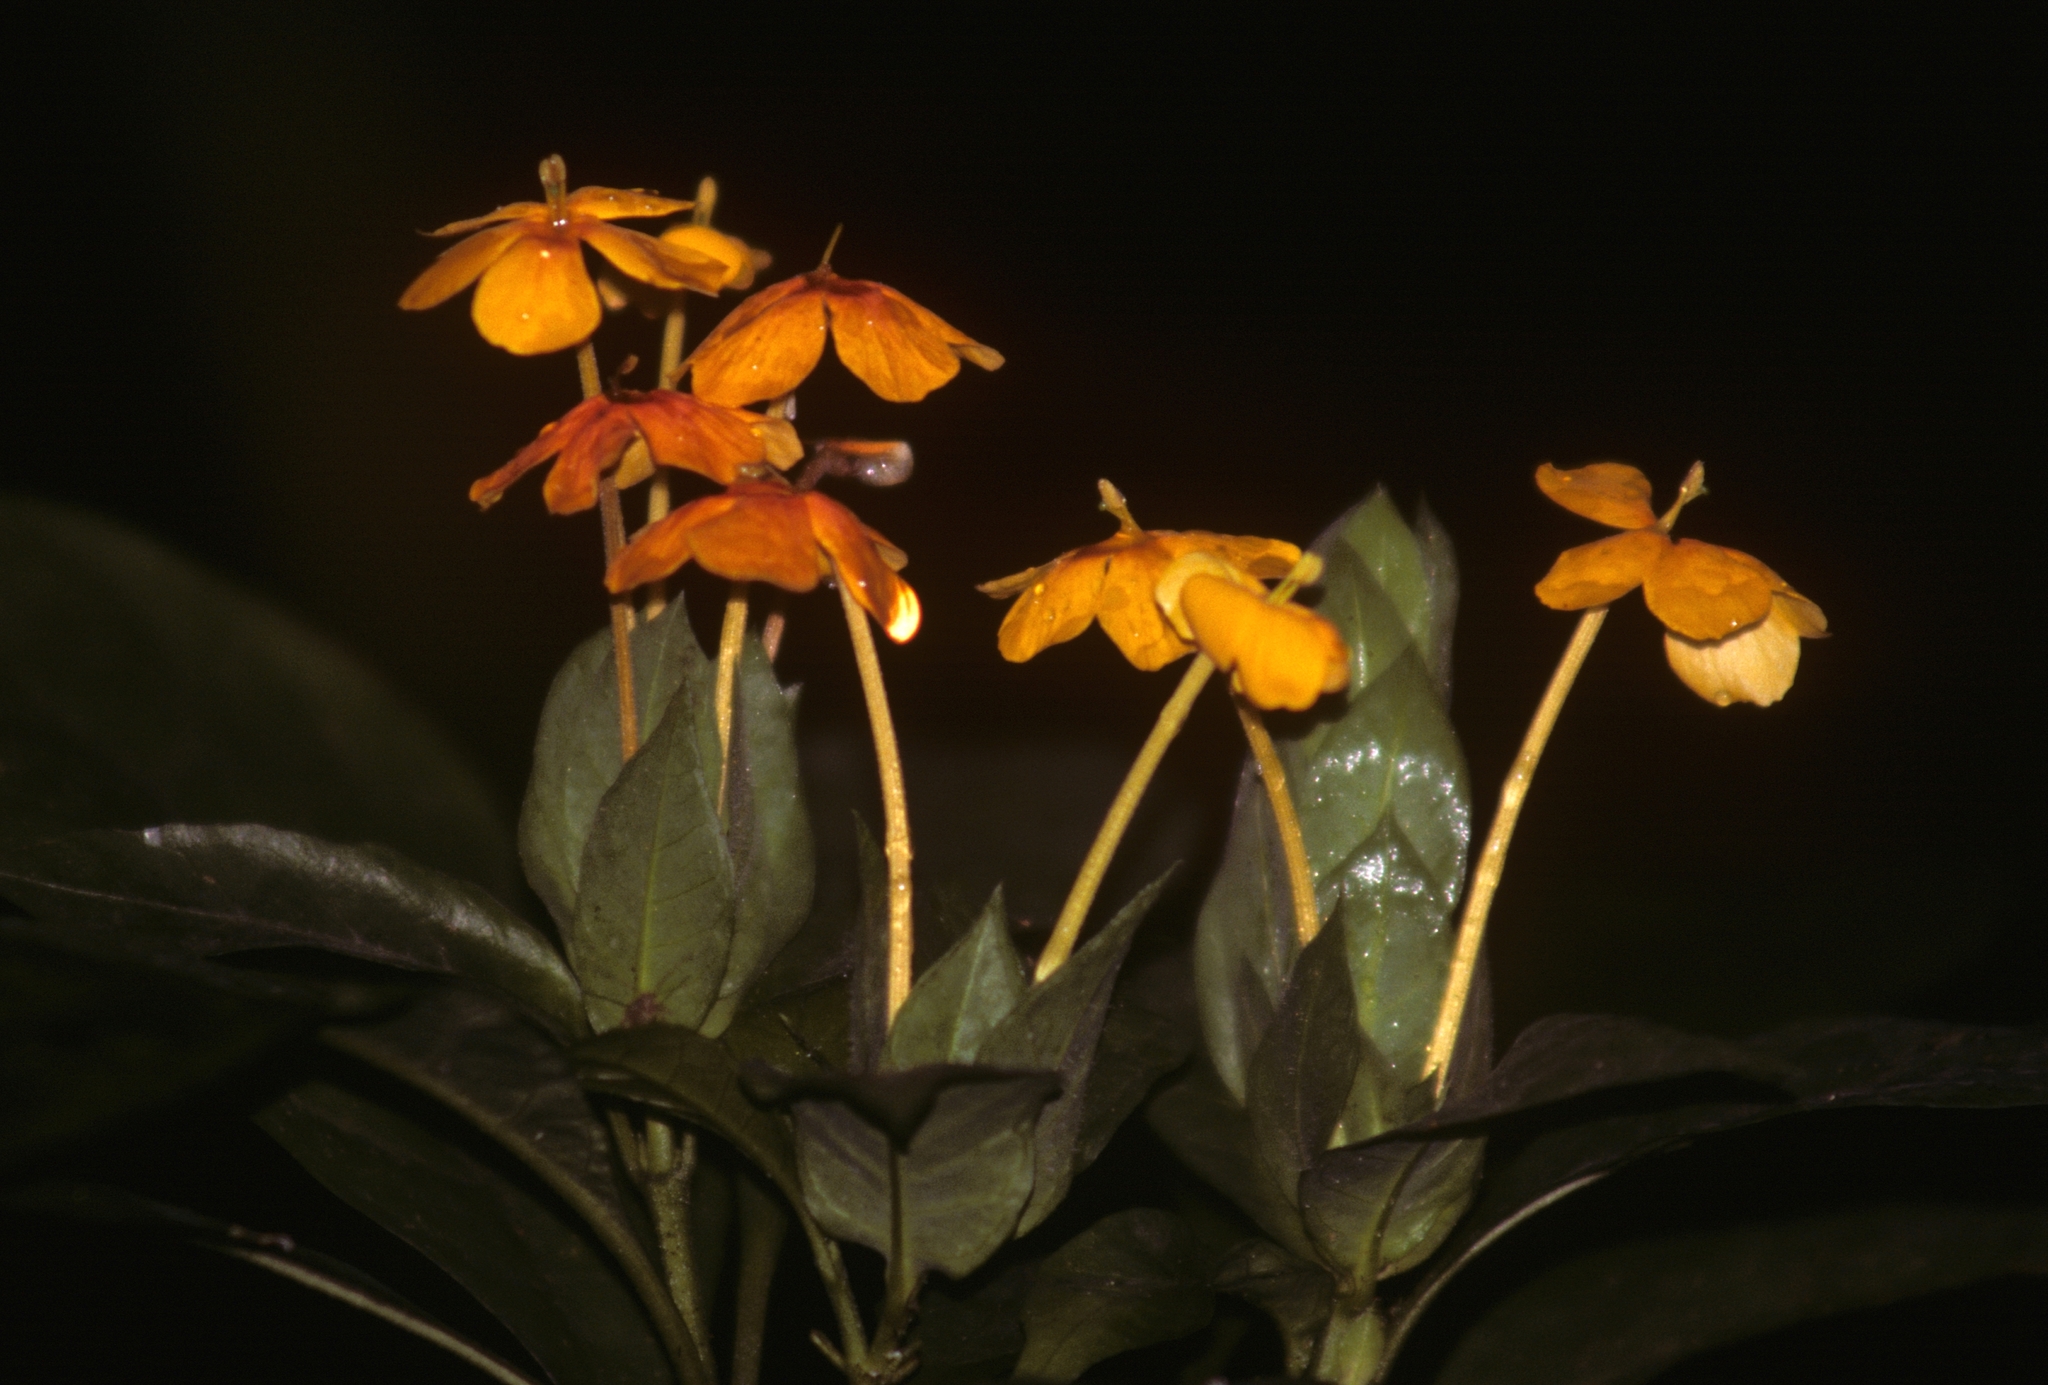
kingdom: Plantae
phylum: Tracheophyta
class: Magnoliopsida
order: Ericales
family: Primulaceae
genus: Lysimachia
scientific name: Lysimachia collina
